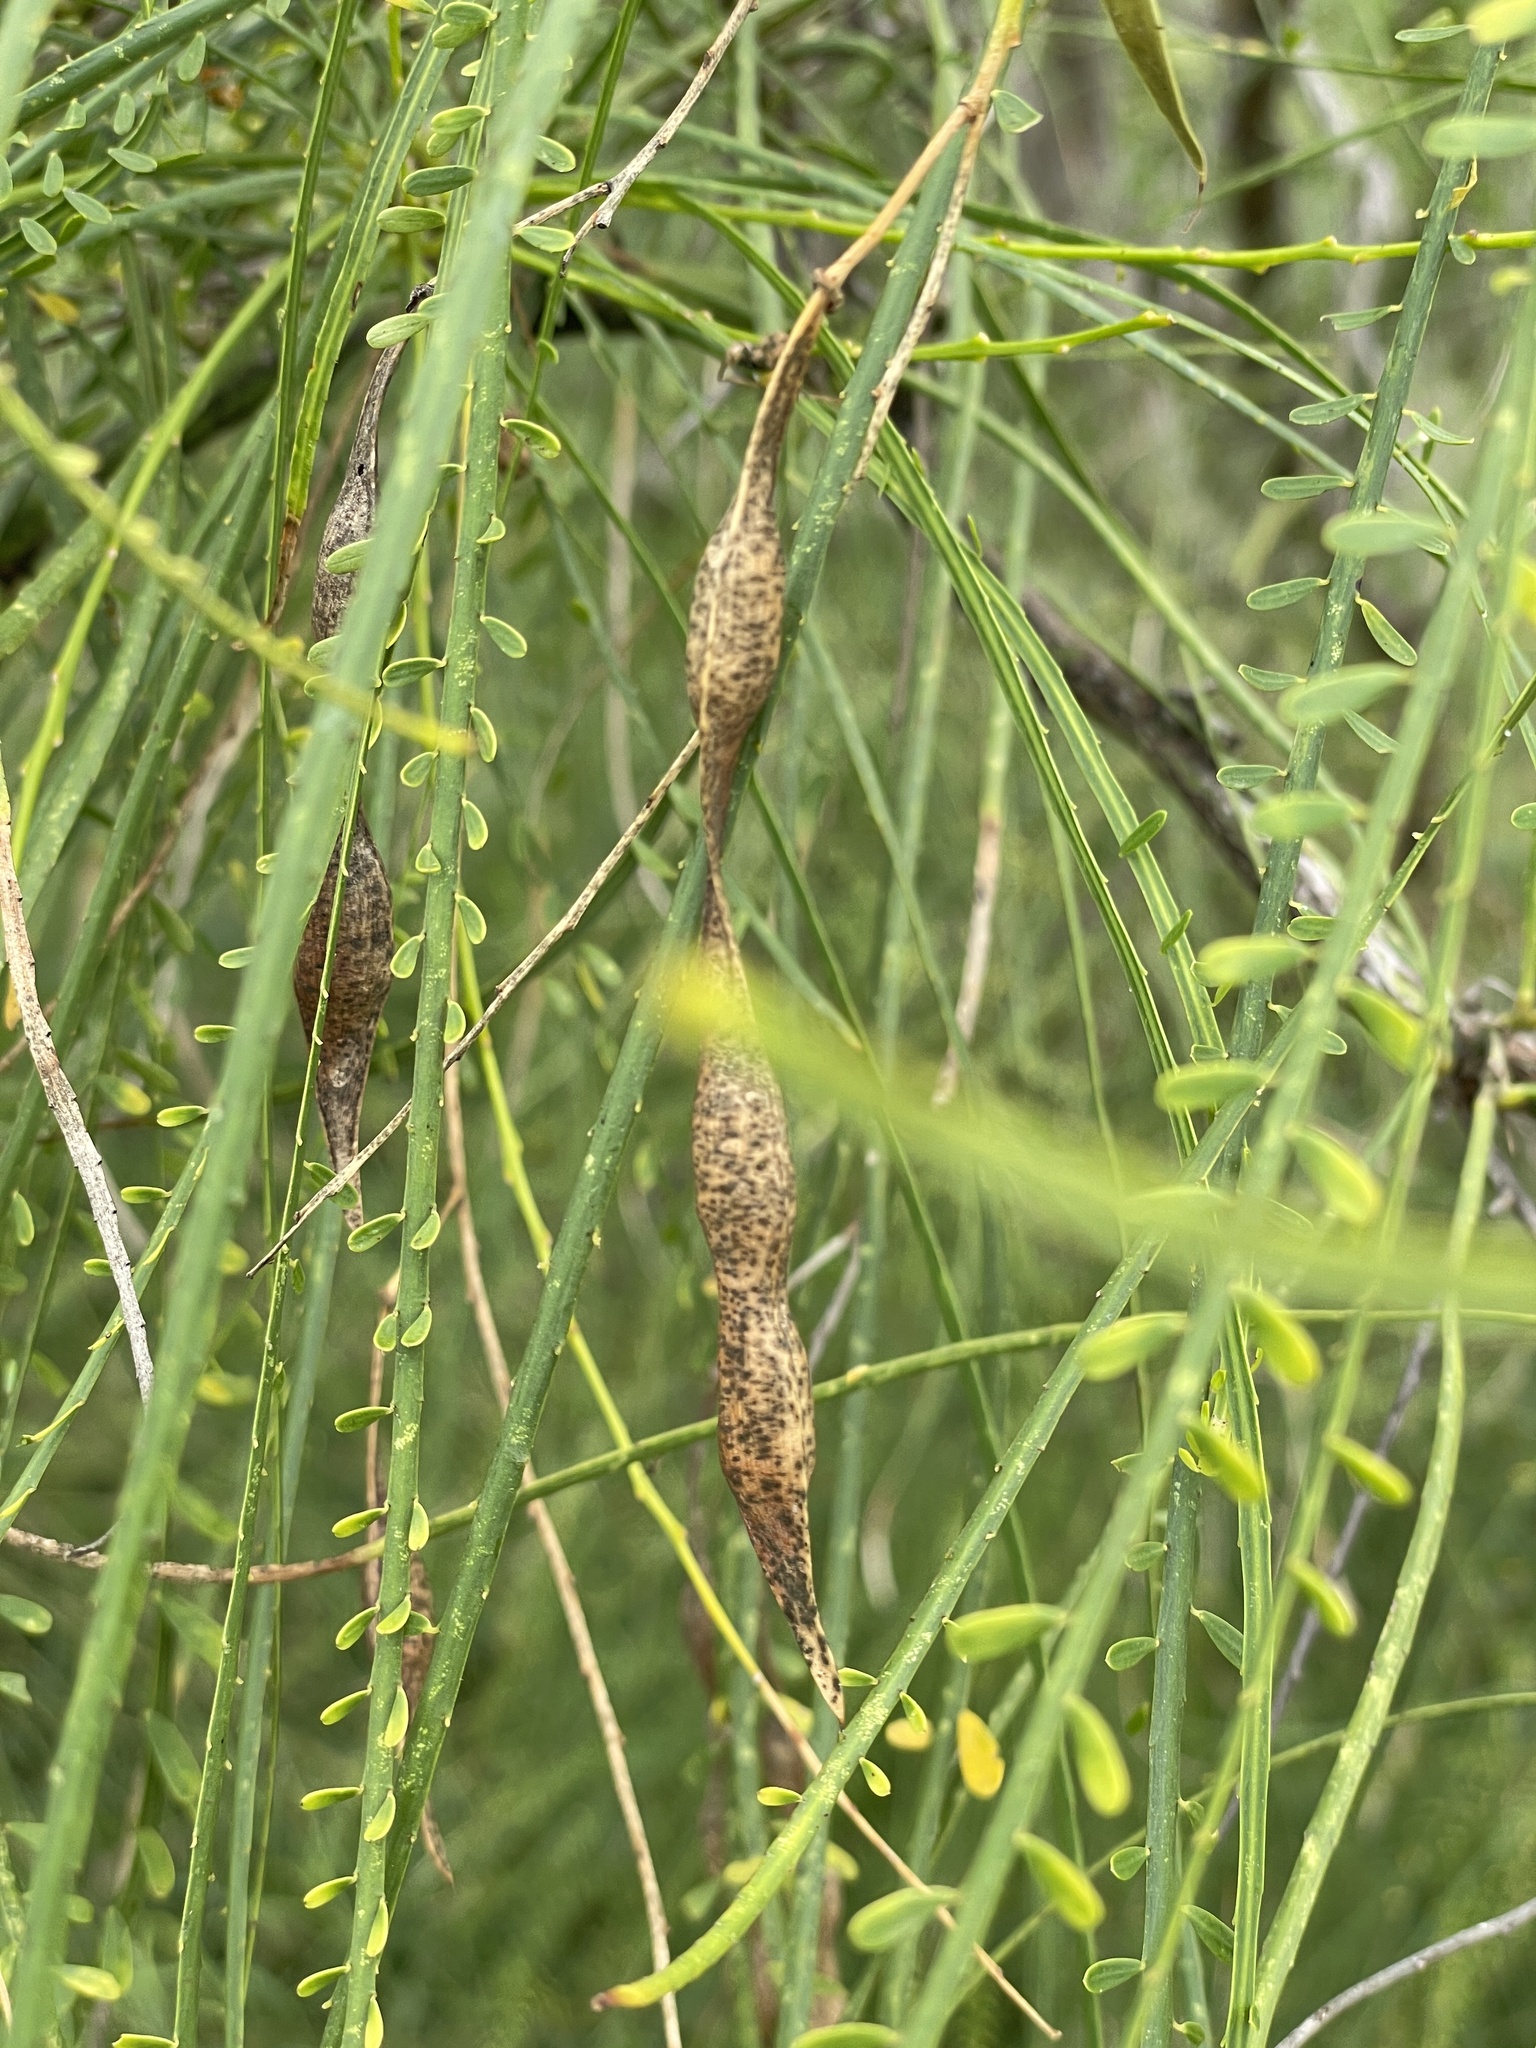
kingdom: Plantae
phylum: Tracheophyta
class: Magnoliopsida
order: Fabales
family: Fabaceae
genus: Parkinsonia
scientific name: Parkinsonia aculeata
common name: Jerusalem thorn
